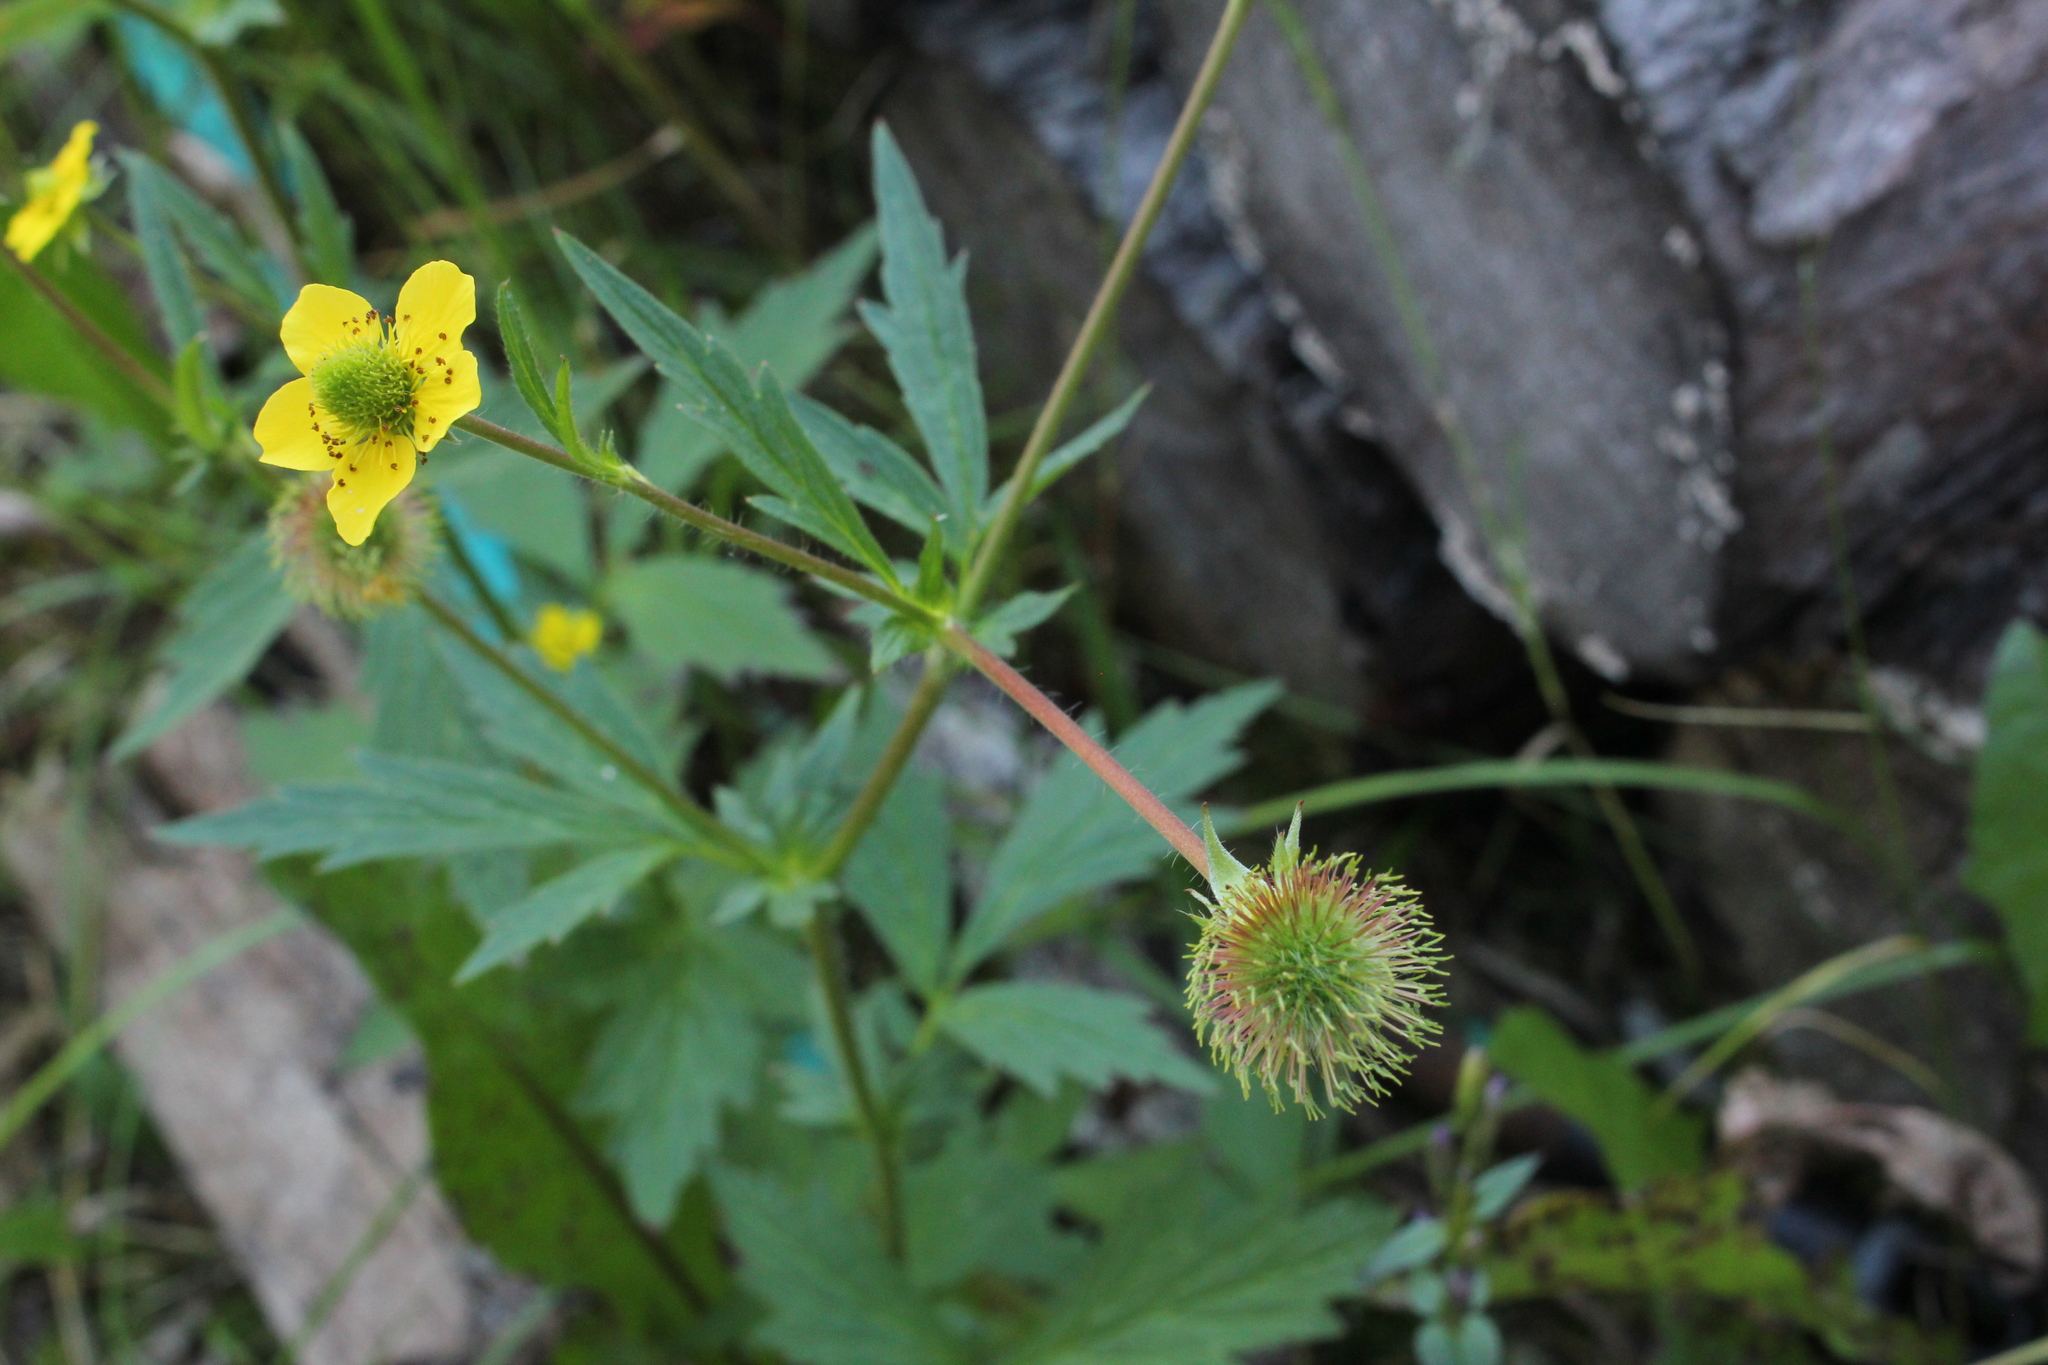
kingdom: Plantae
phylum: Tracheophyta
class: Magnoliopsida
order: Rosales
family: Rosaceae
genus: Geum
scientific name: Geum aleppicum
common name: Yellow avens
